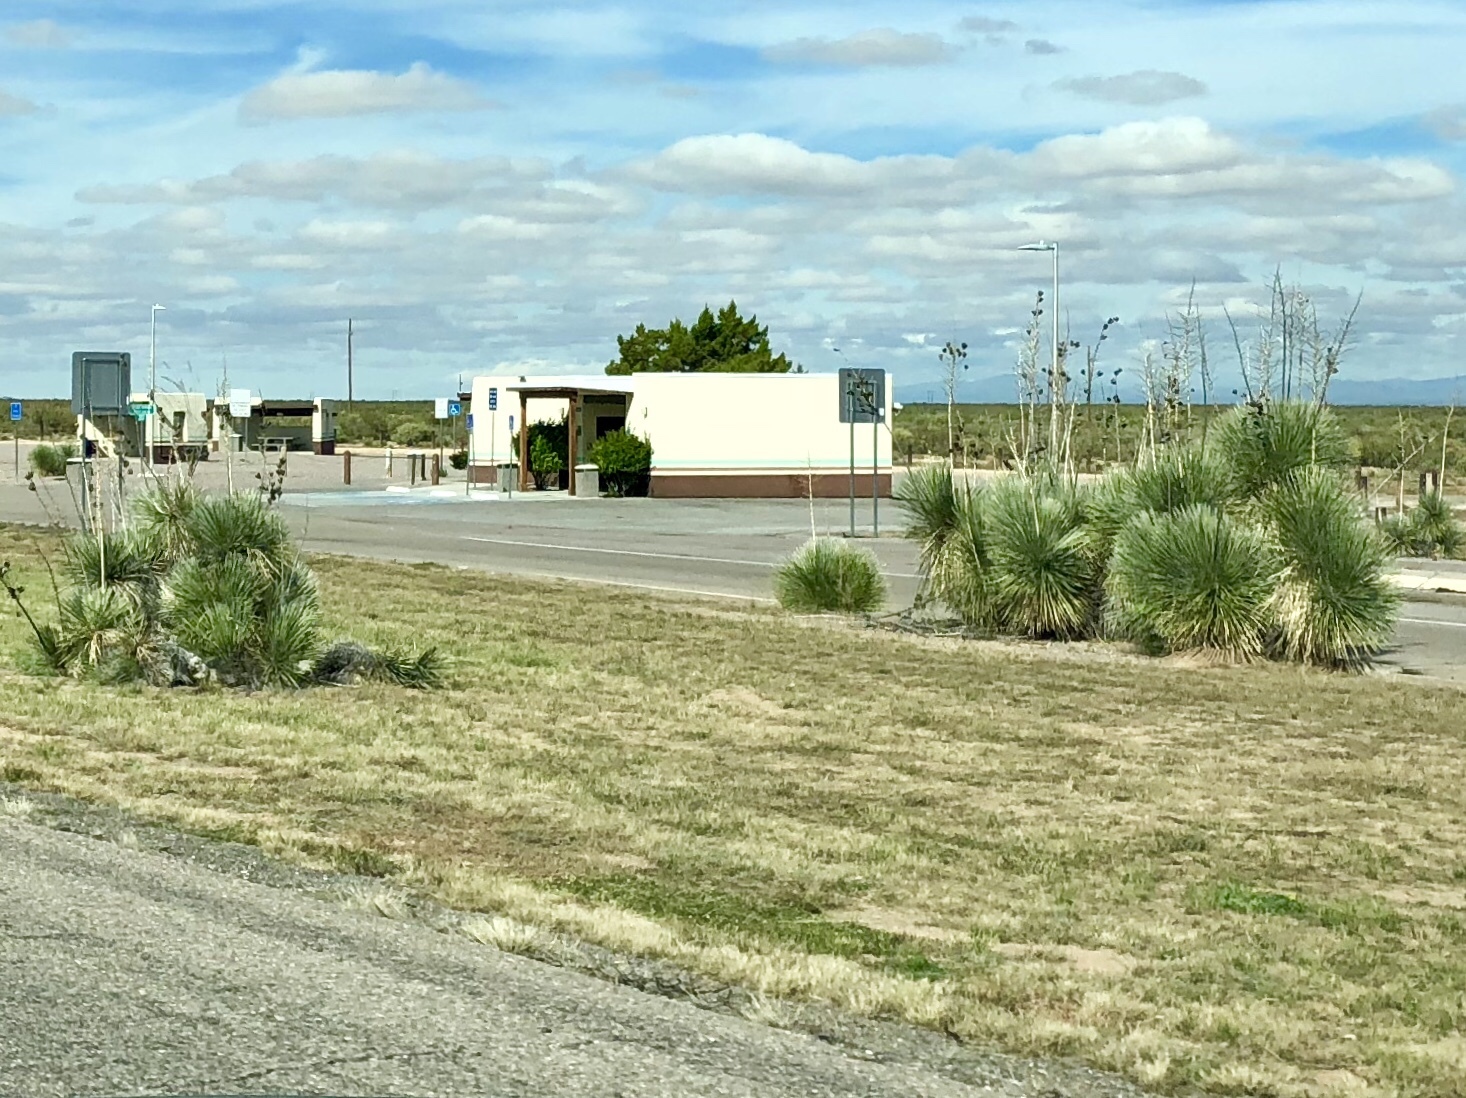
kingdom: Plantae
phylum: Tracheophyta
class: Liliopsida
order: Asparagales
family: Asparagaceae
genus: Yucca
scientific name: Yucca elata
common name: Palmella
